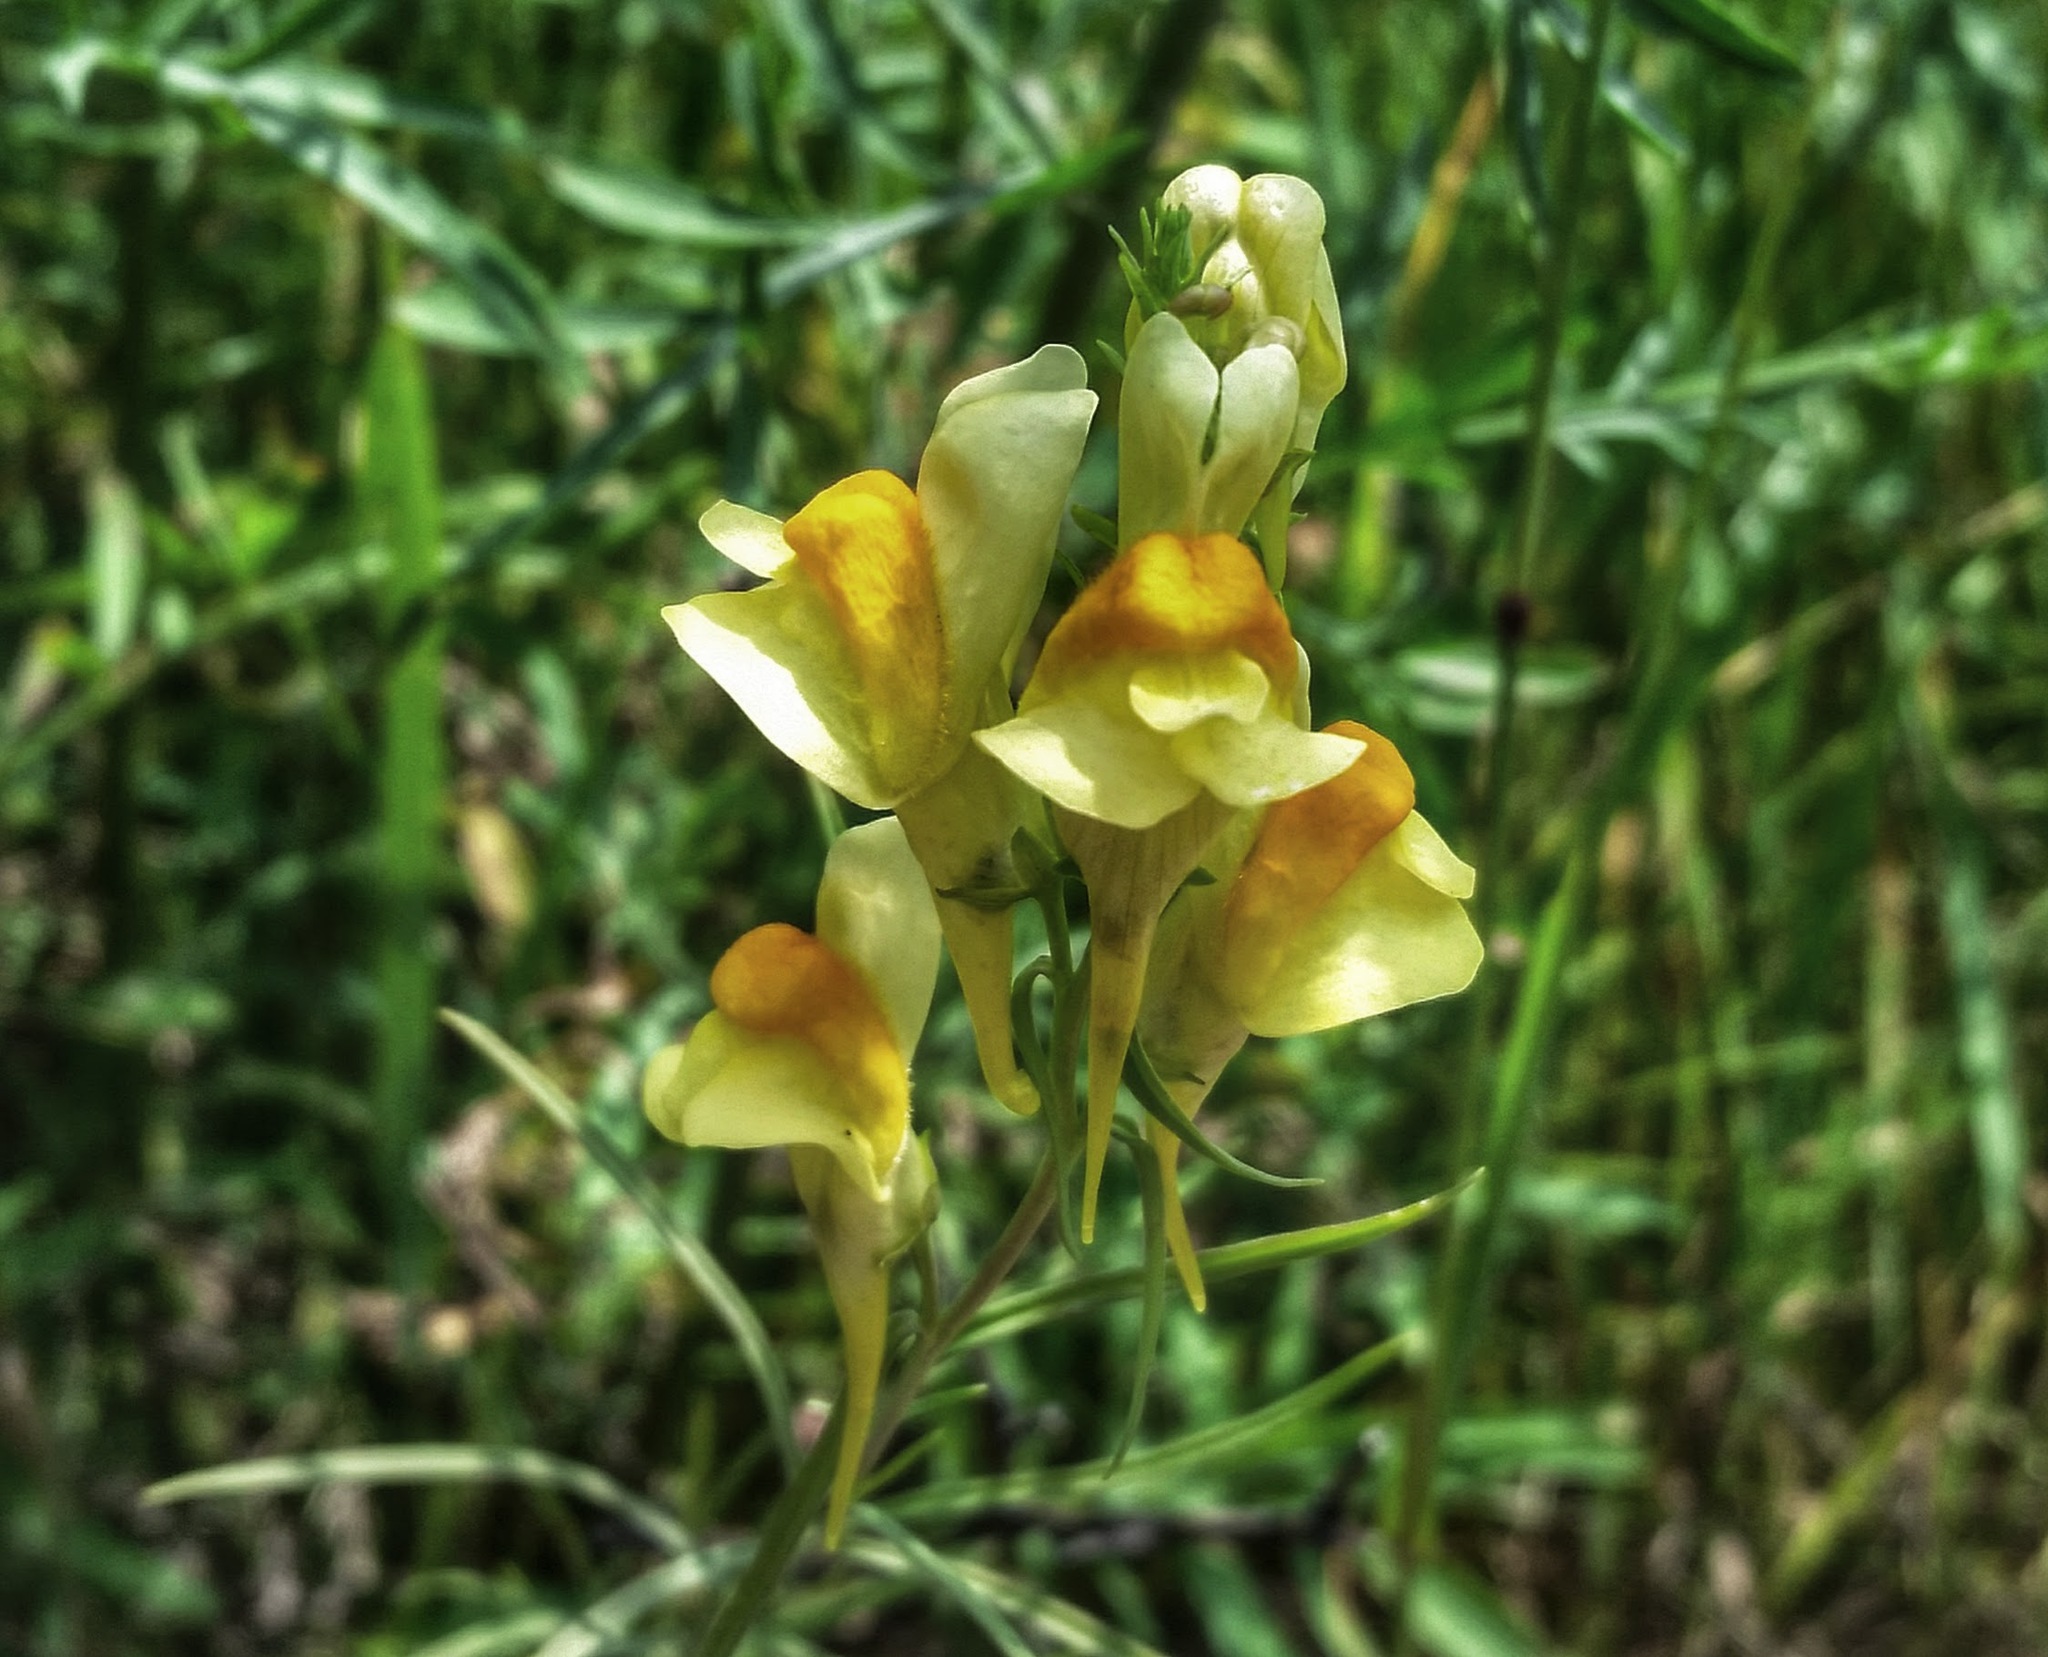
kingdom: Plantae
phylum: Tracheophyta
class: Magnoliopsida
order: Lamiales
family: Plantaginaceae
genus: Linaria
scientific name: Linaria vulgaris
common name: Butter and eggs
